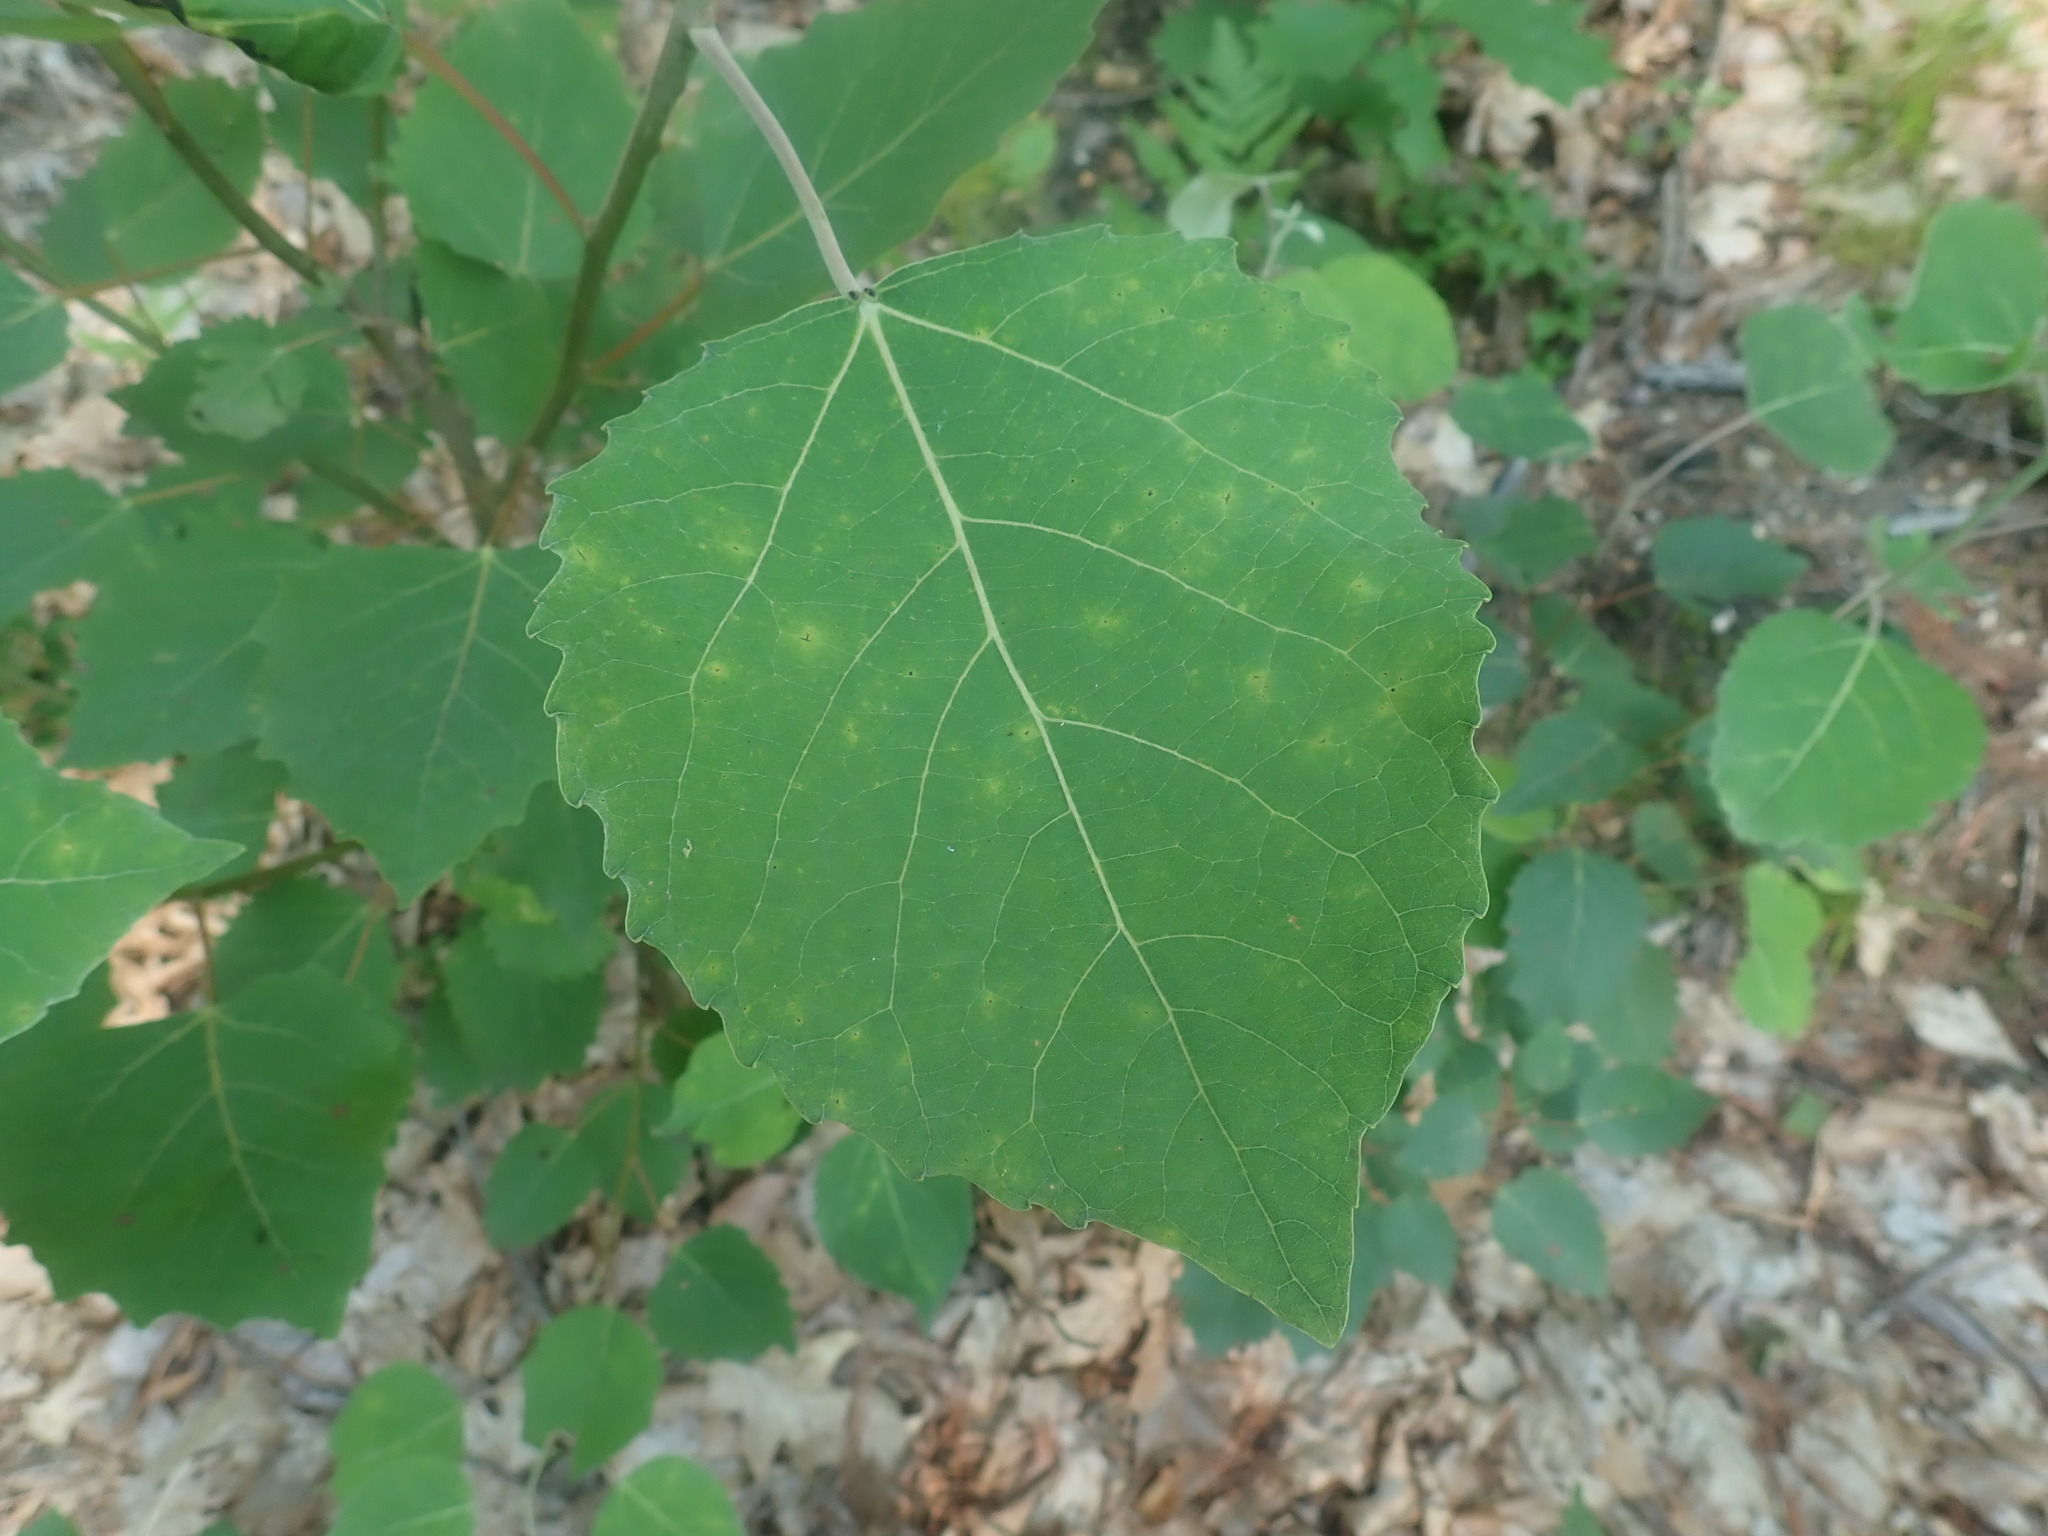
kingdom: Plantae
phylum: Tracheophyta
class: Magnoliopsida
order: Malpighiales
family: Salicaceae
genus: Populus
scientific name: Populus grandidentata
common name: Bigtooth aspen
